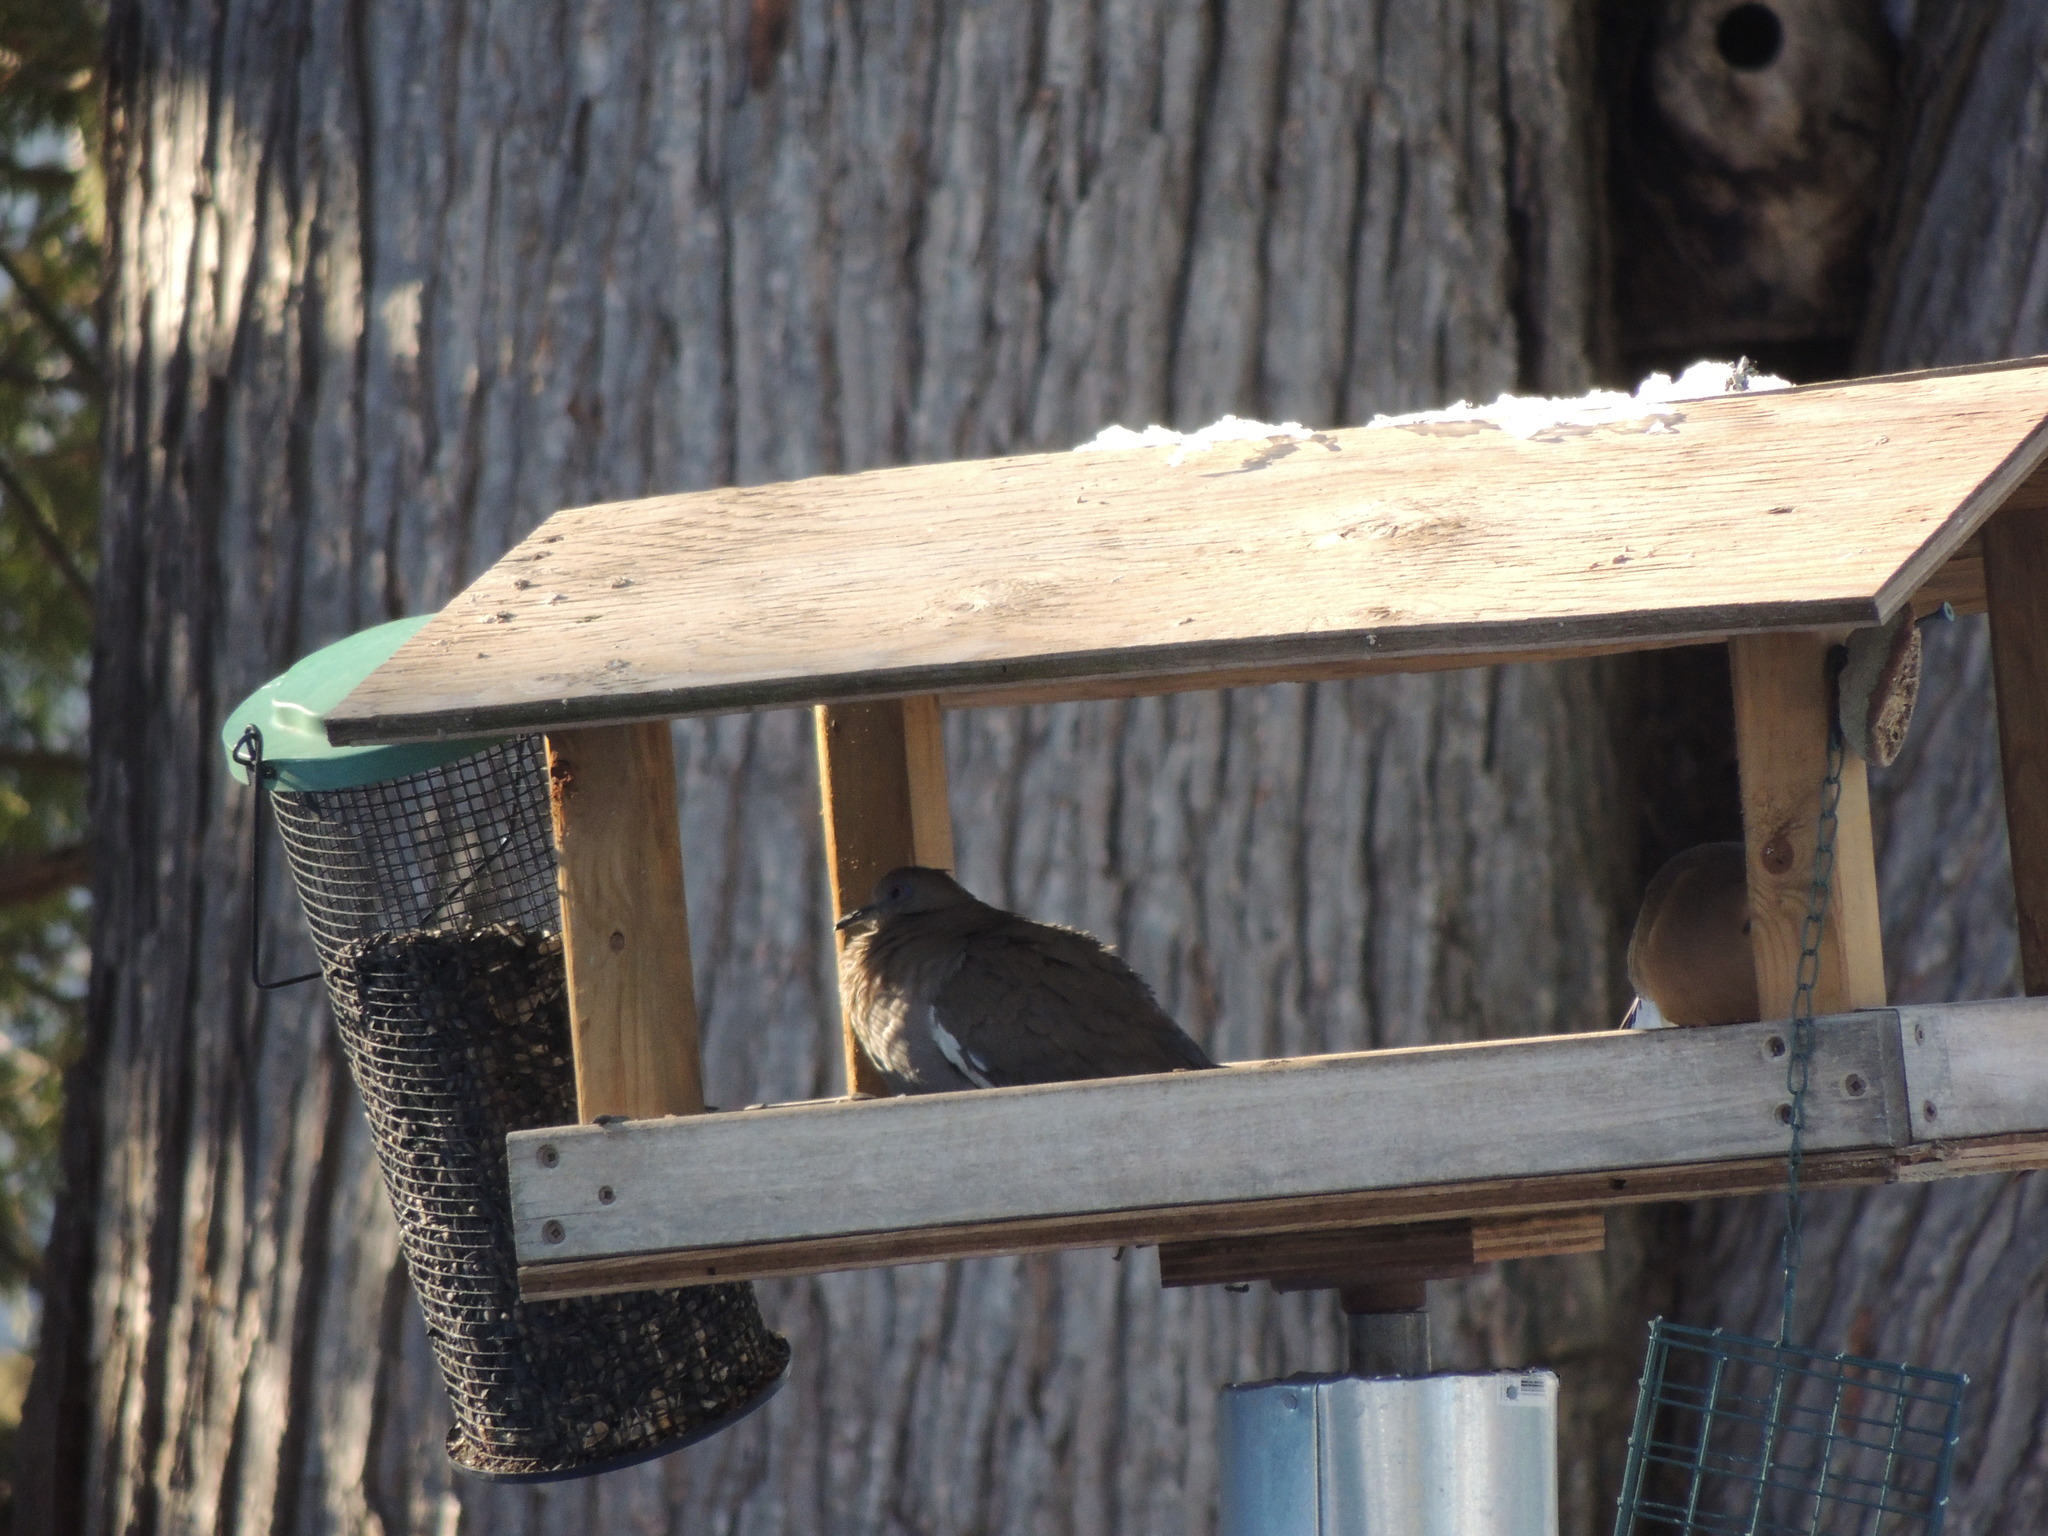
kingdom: Animalia
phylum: Chordata
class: Aves
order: Columbiformes
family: Columbidae
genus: Zenaida
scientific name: Zenaida asiatica
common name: White-winged dove
